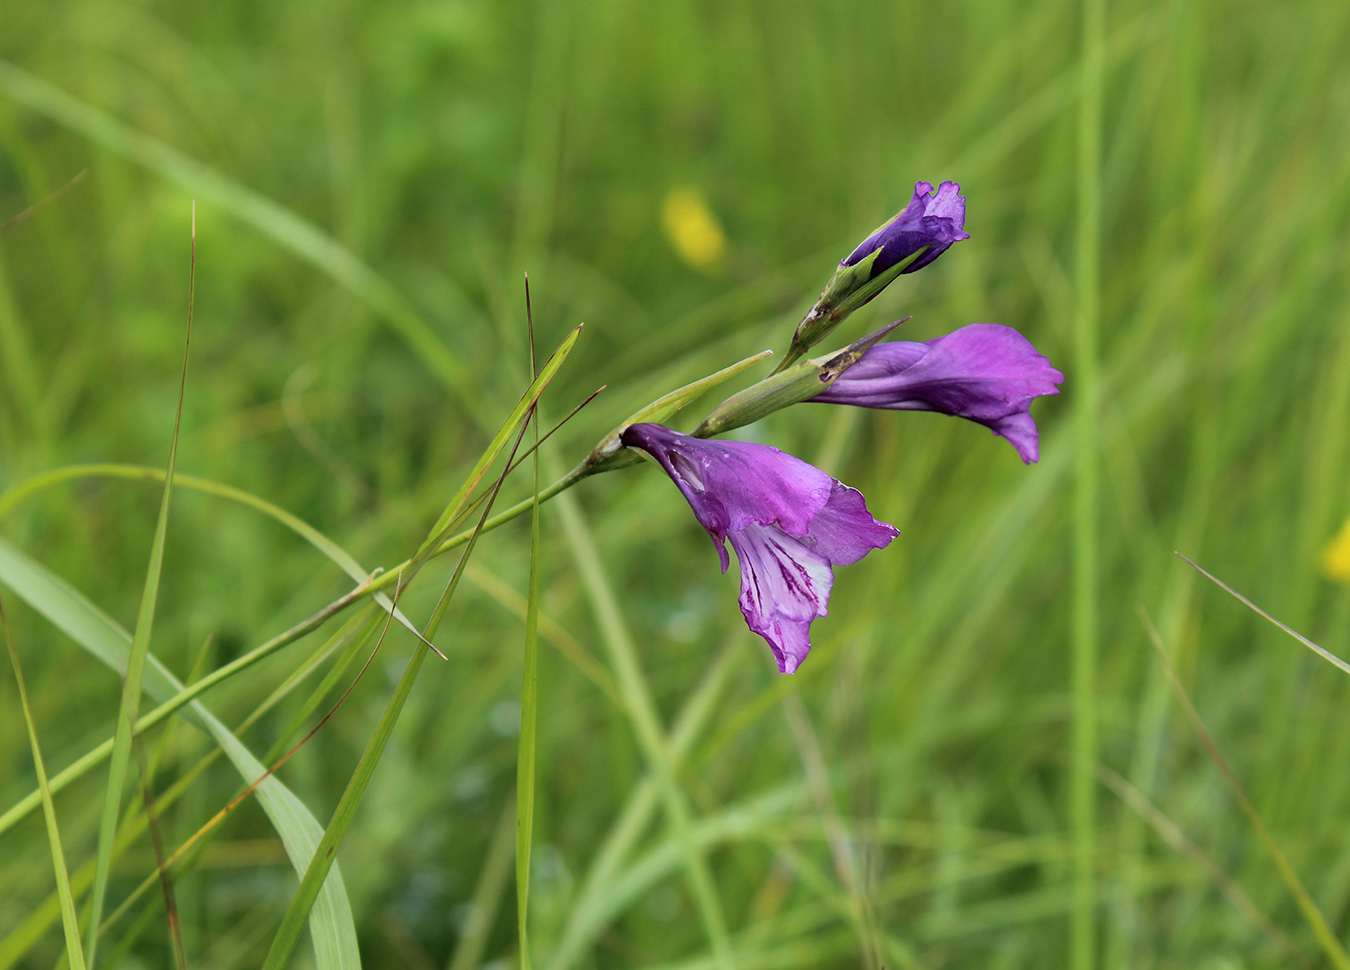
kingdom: Plantae
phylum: Tracheophyta
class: Liliopsida
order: Asparagales
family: Iridaceae
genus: Gladiolus
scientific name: Gladiolus tenuis
